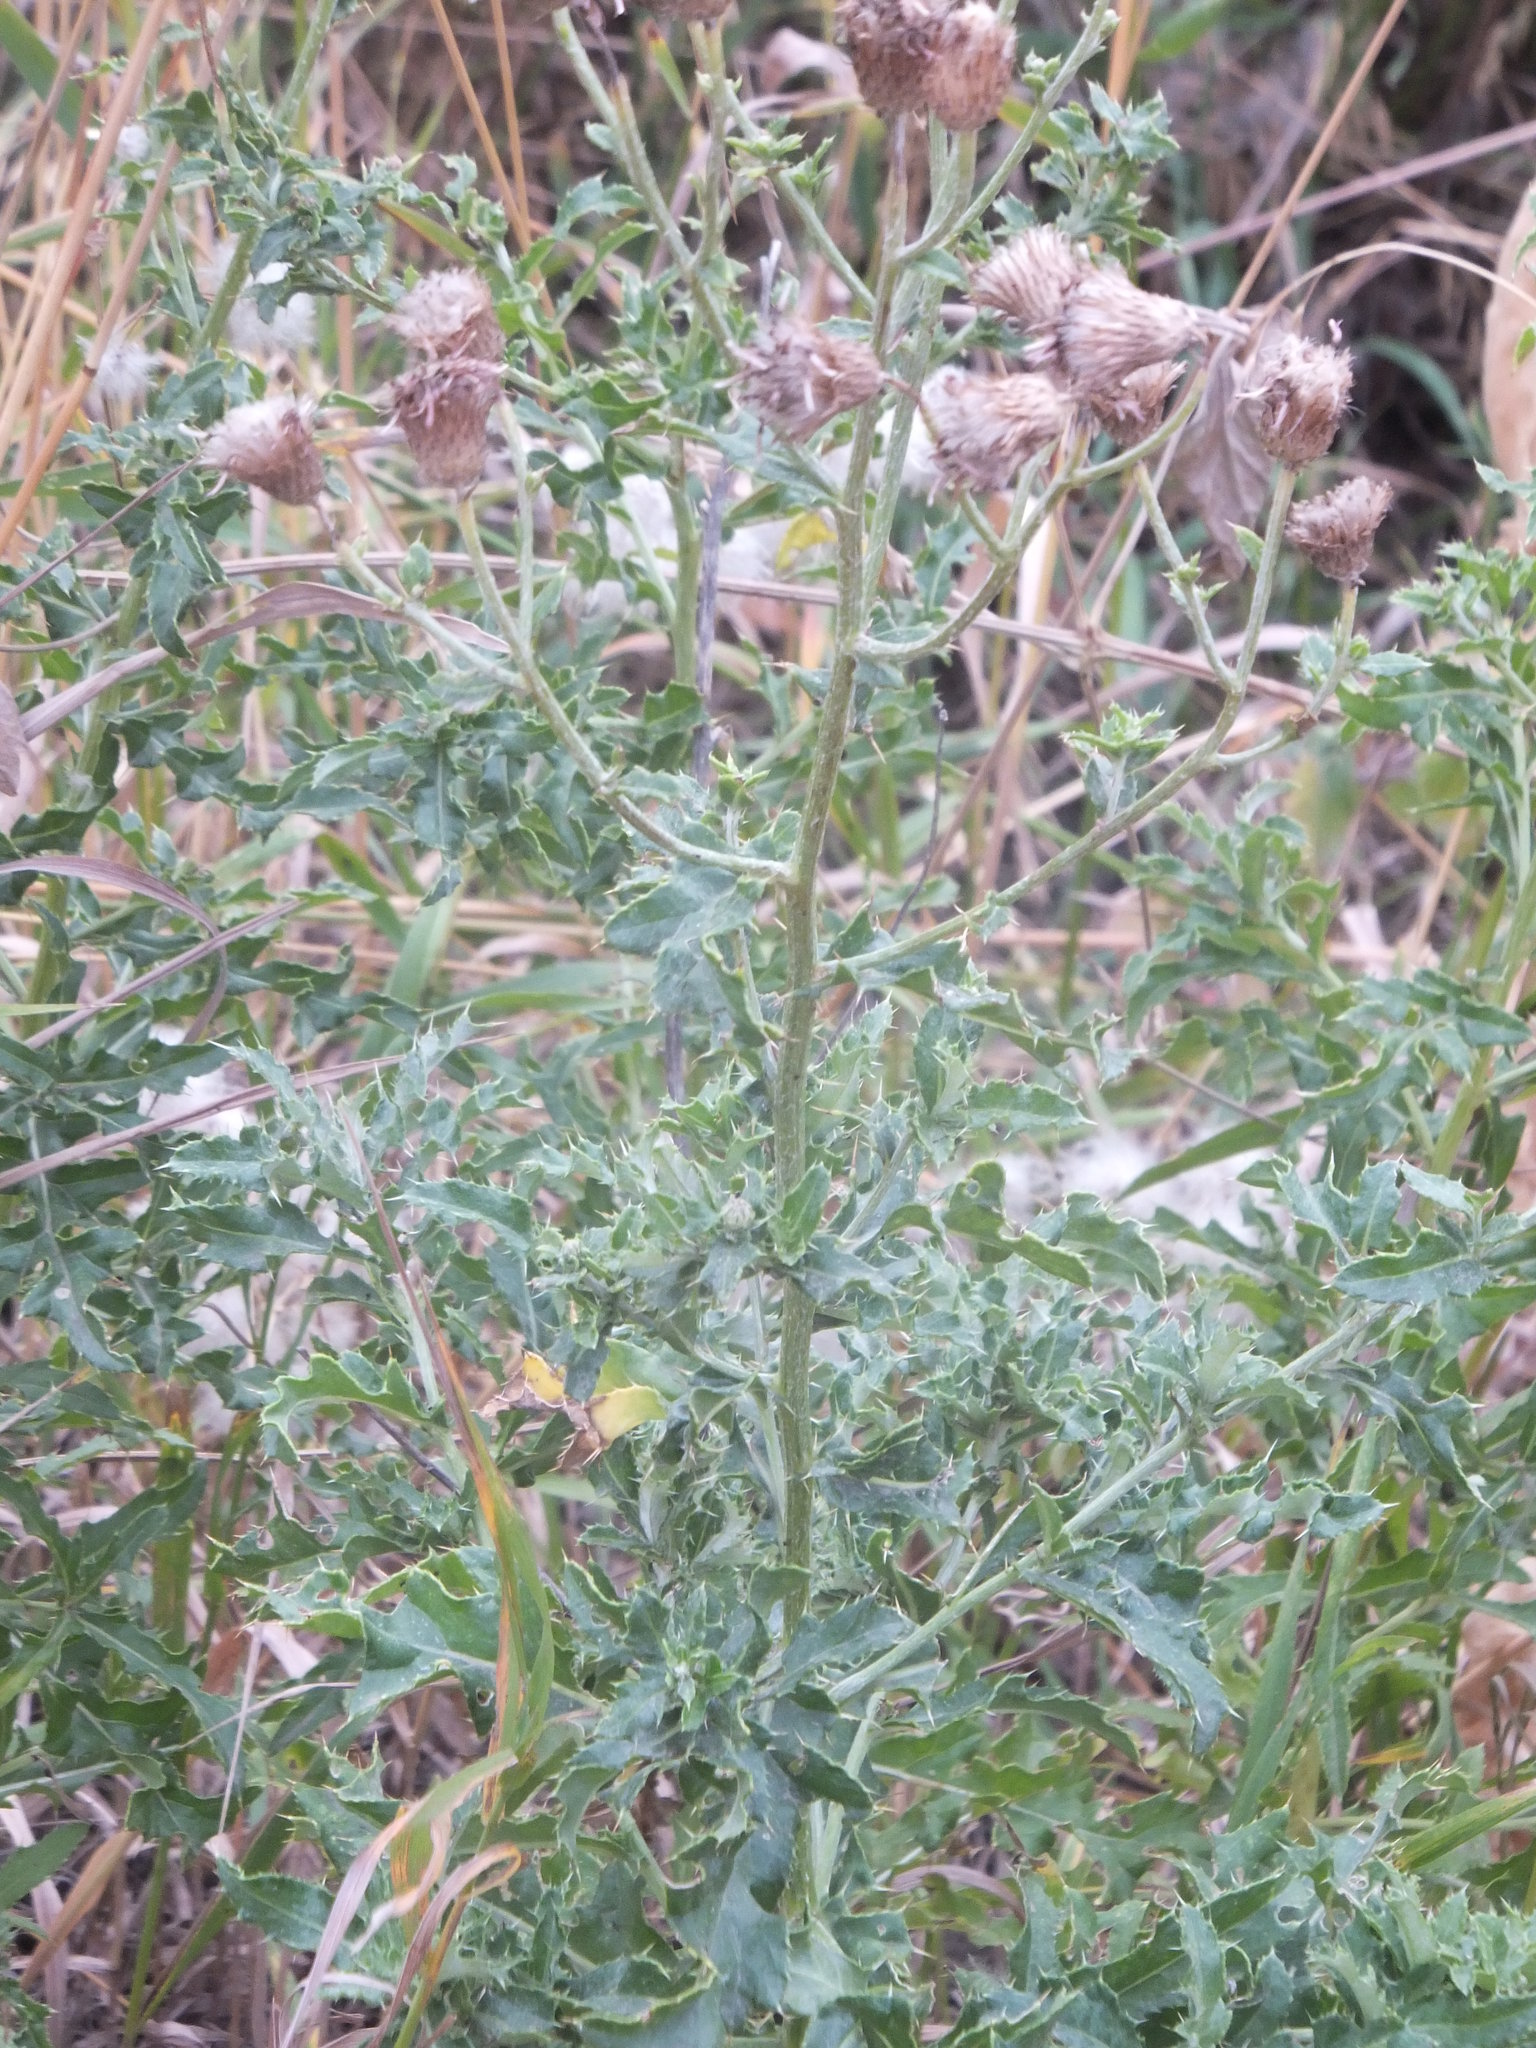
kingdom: Plantae
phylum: Tracheophyta
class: Magnoliopsida
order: Asterales
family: Asteraceae
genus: Cirsium
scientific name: Cirsium arvense
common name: Creeping thistle
